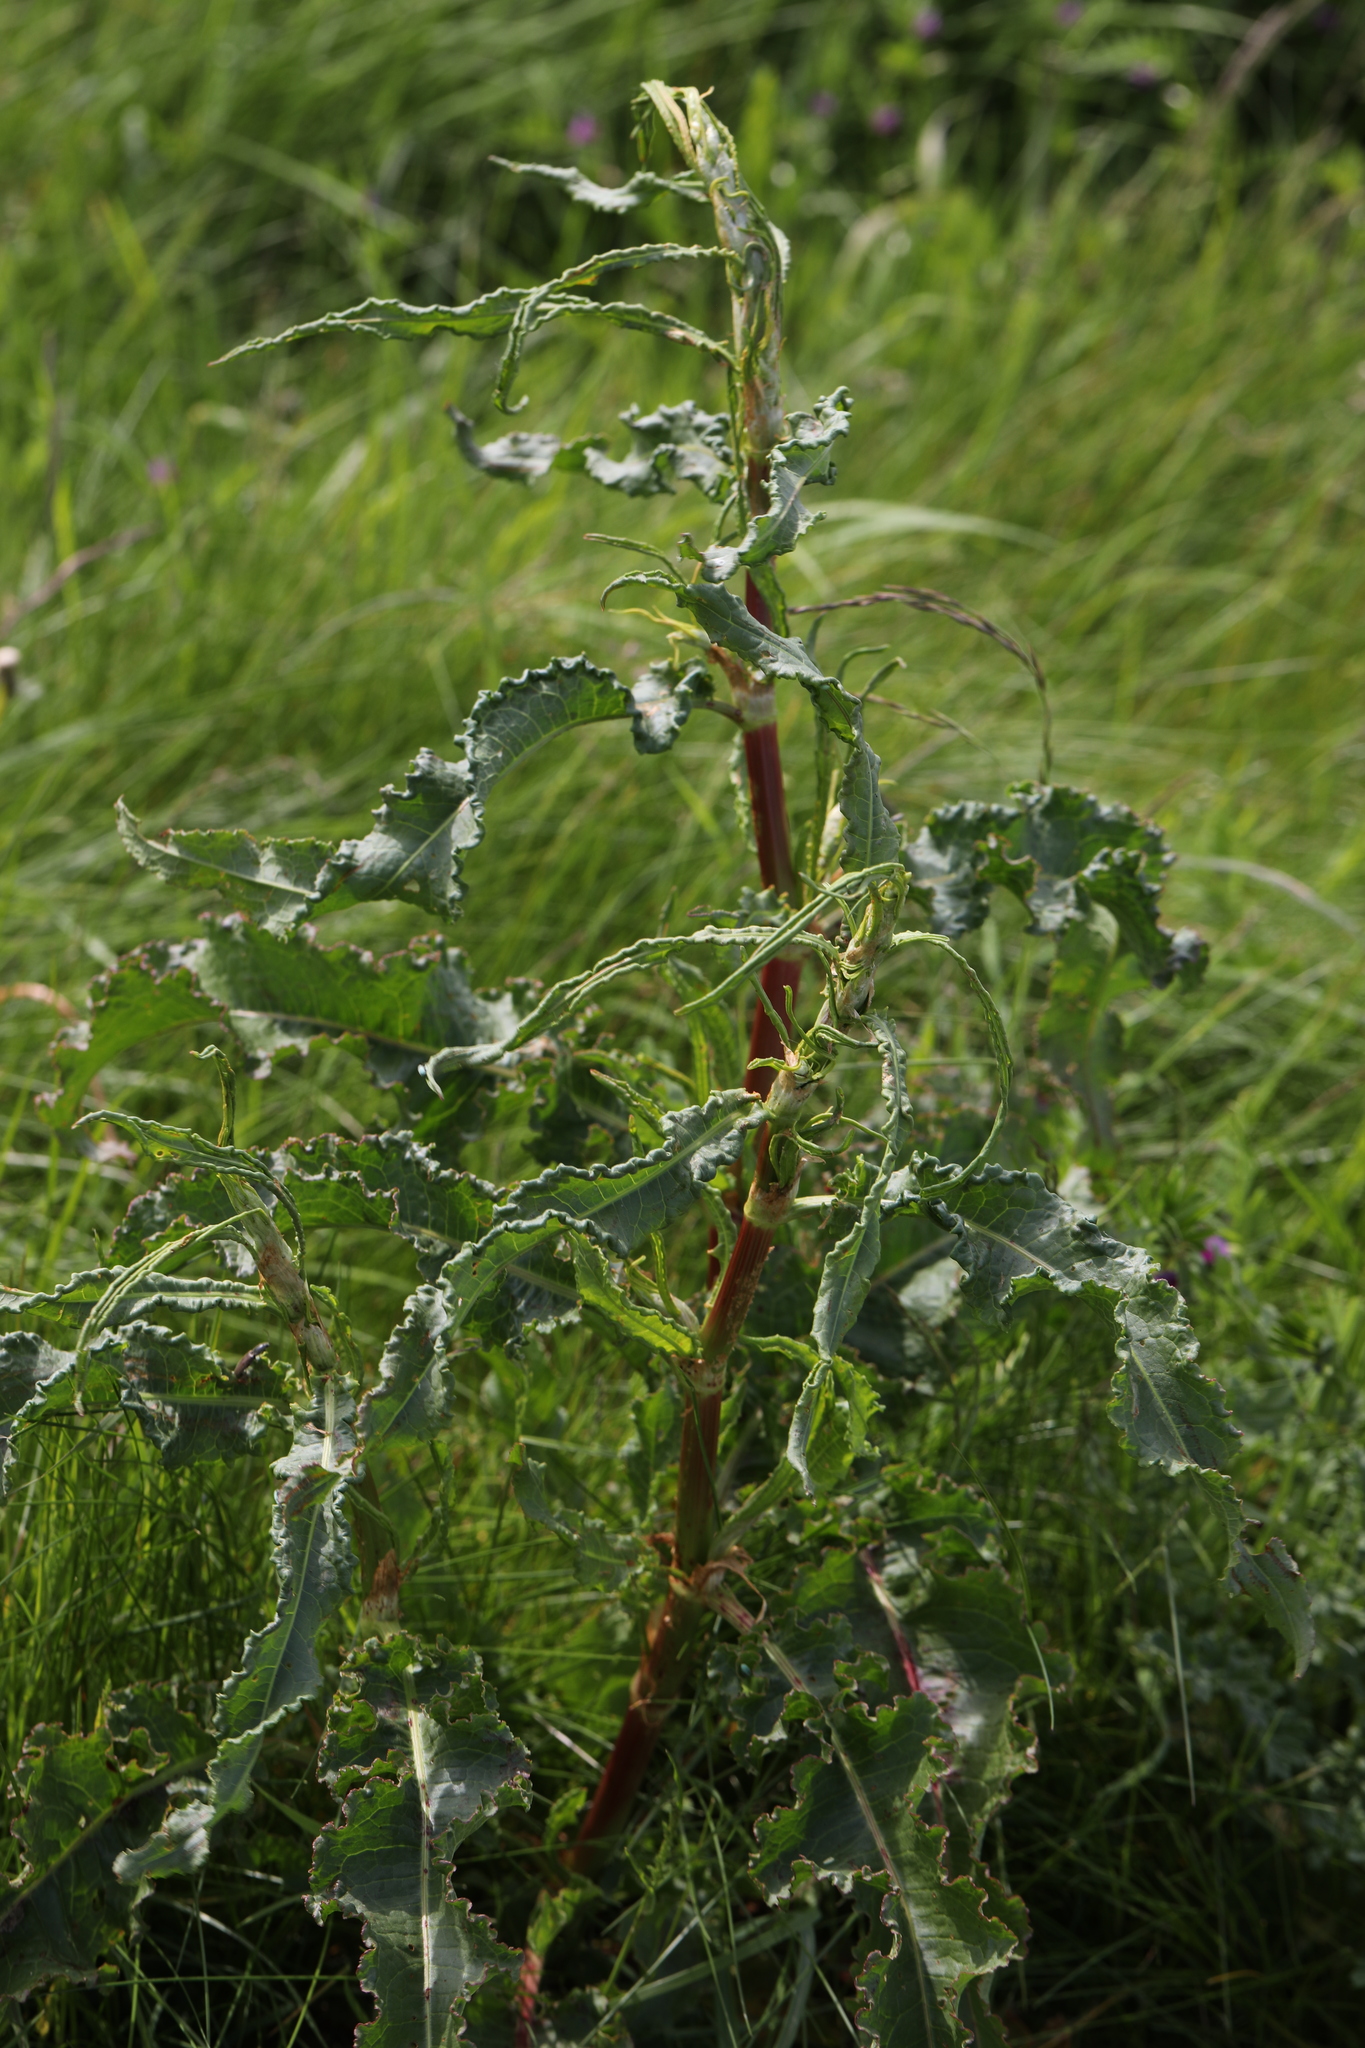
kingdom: Plantae
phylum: Tracheophyta
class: Magnoliopsida
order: Caryophyllales
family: Polygonaceae
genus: Rumex
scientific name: Rumex crispus
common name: Curled dock
